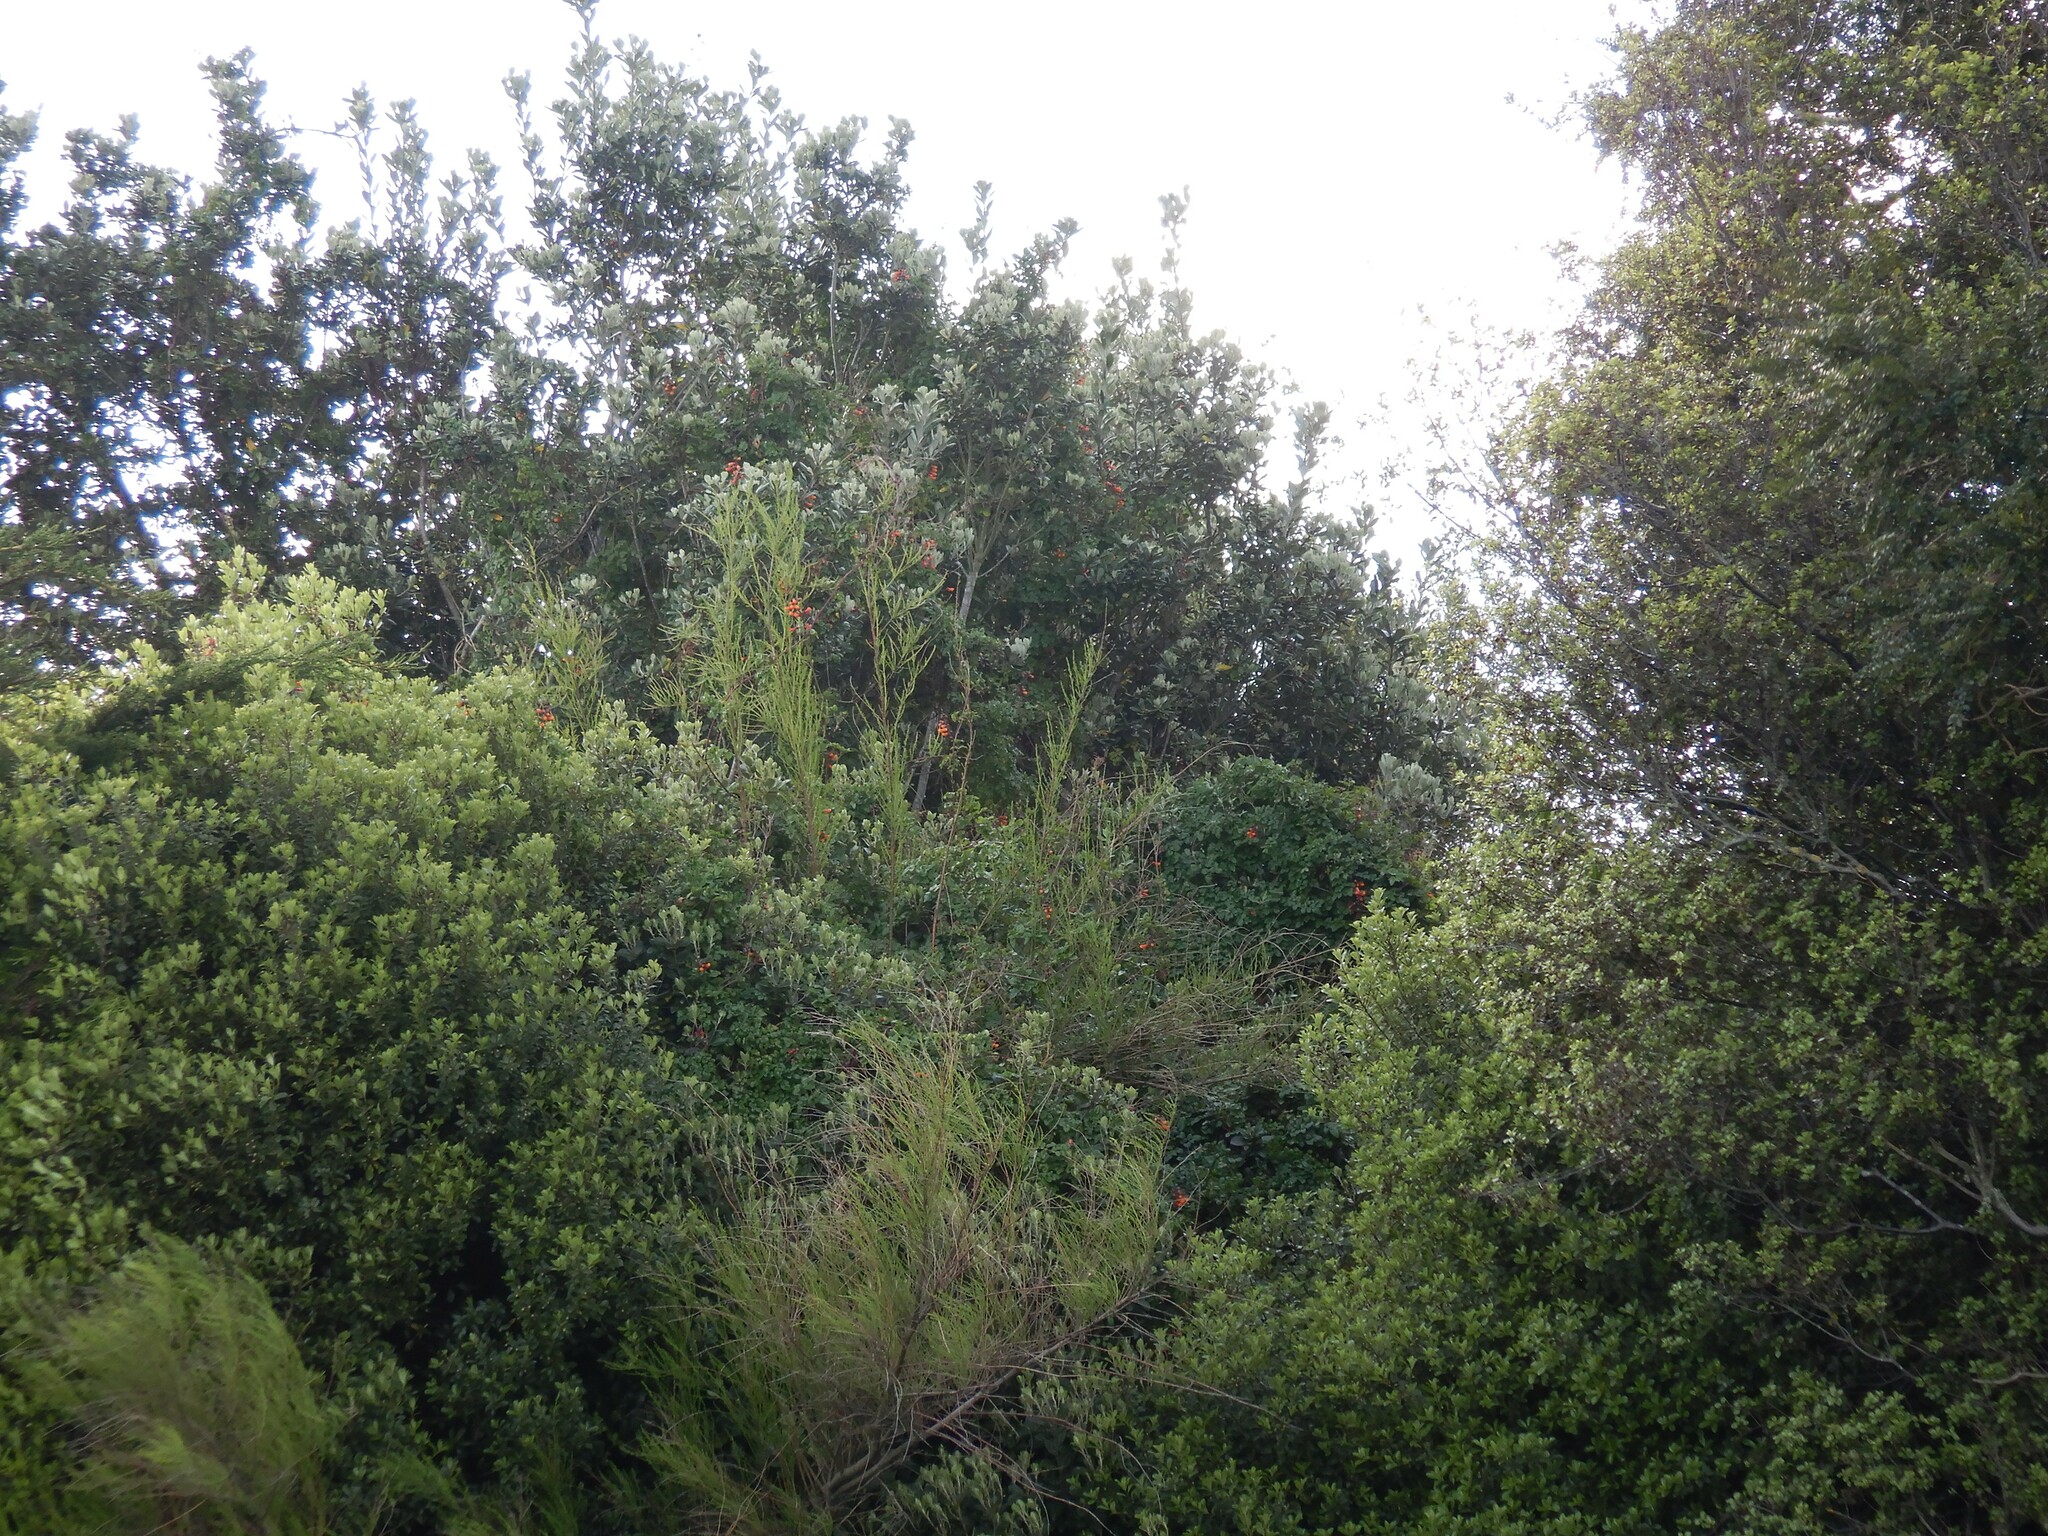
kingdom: Plantae
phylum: Tracheophyta
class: Magnoliopsida
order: Lamiales
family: Bignoniaceae
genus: Eccremocarpus
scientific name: Eccremocarpus scaber
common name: Chilean glory-flower
